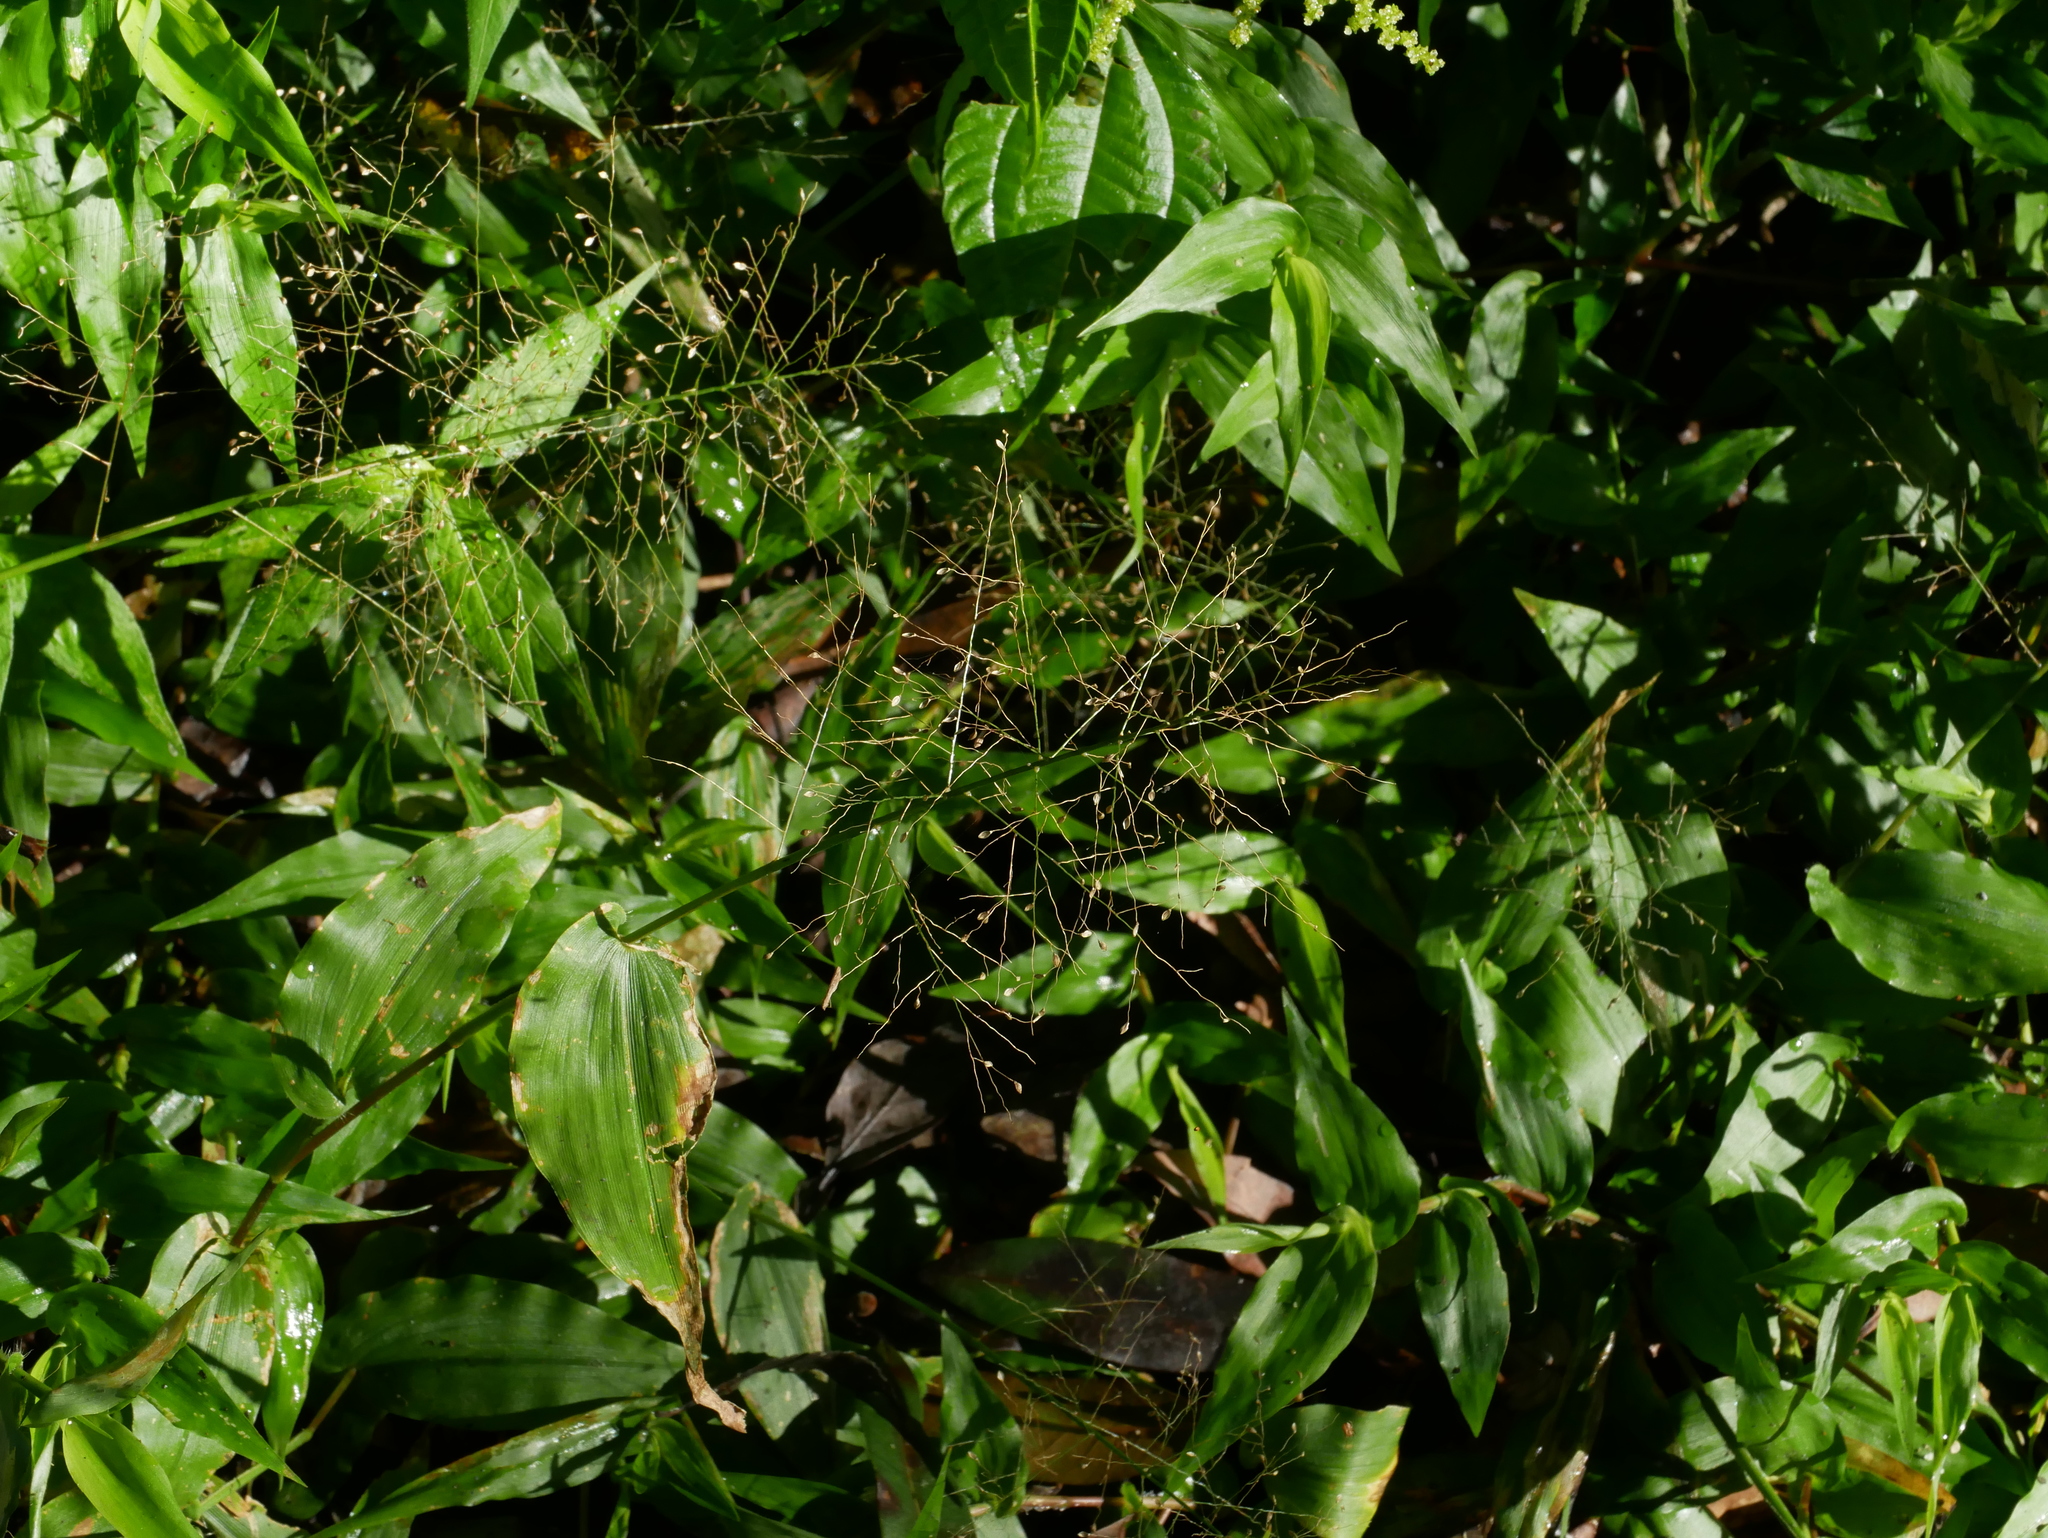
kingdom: Plantae
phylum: Tracheophyta
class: Liliopsida
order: Poales
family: Poaceae
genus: Panicum
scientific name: Panicum brevifolium
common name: Shortleaf panic grass
